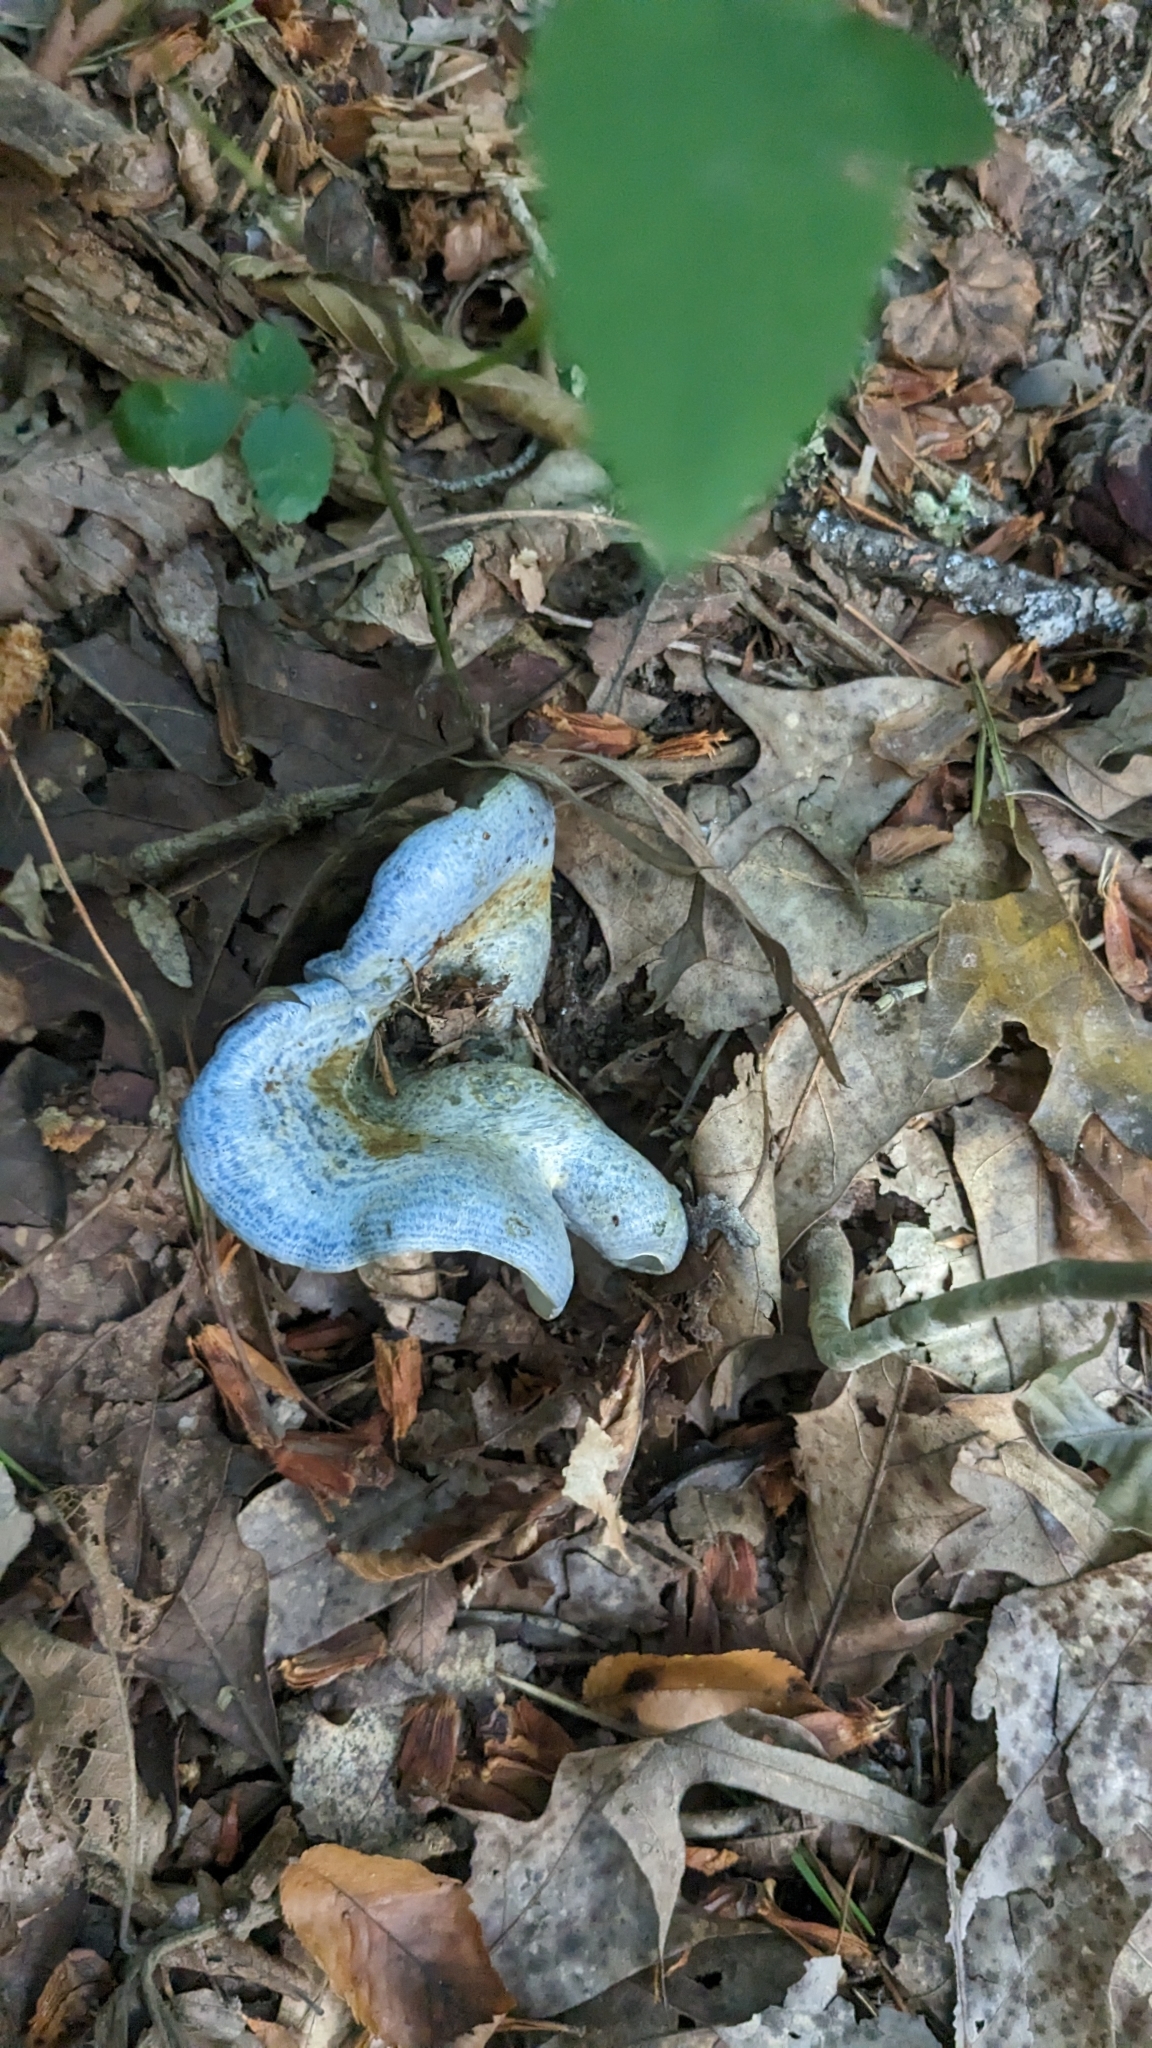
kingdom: Fungi
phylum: Basidiomycota
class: Agaricomycetes
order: Russulales
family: Russulaceae
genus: Lactarius
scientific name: Lactarius indigo
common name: Indigo milk cap
